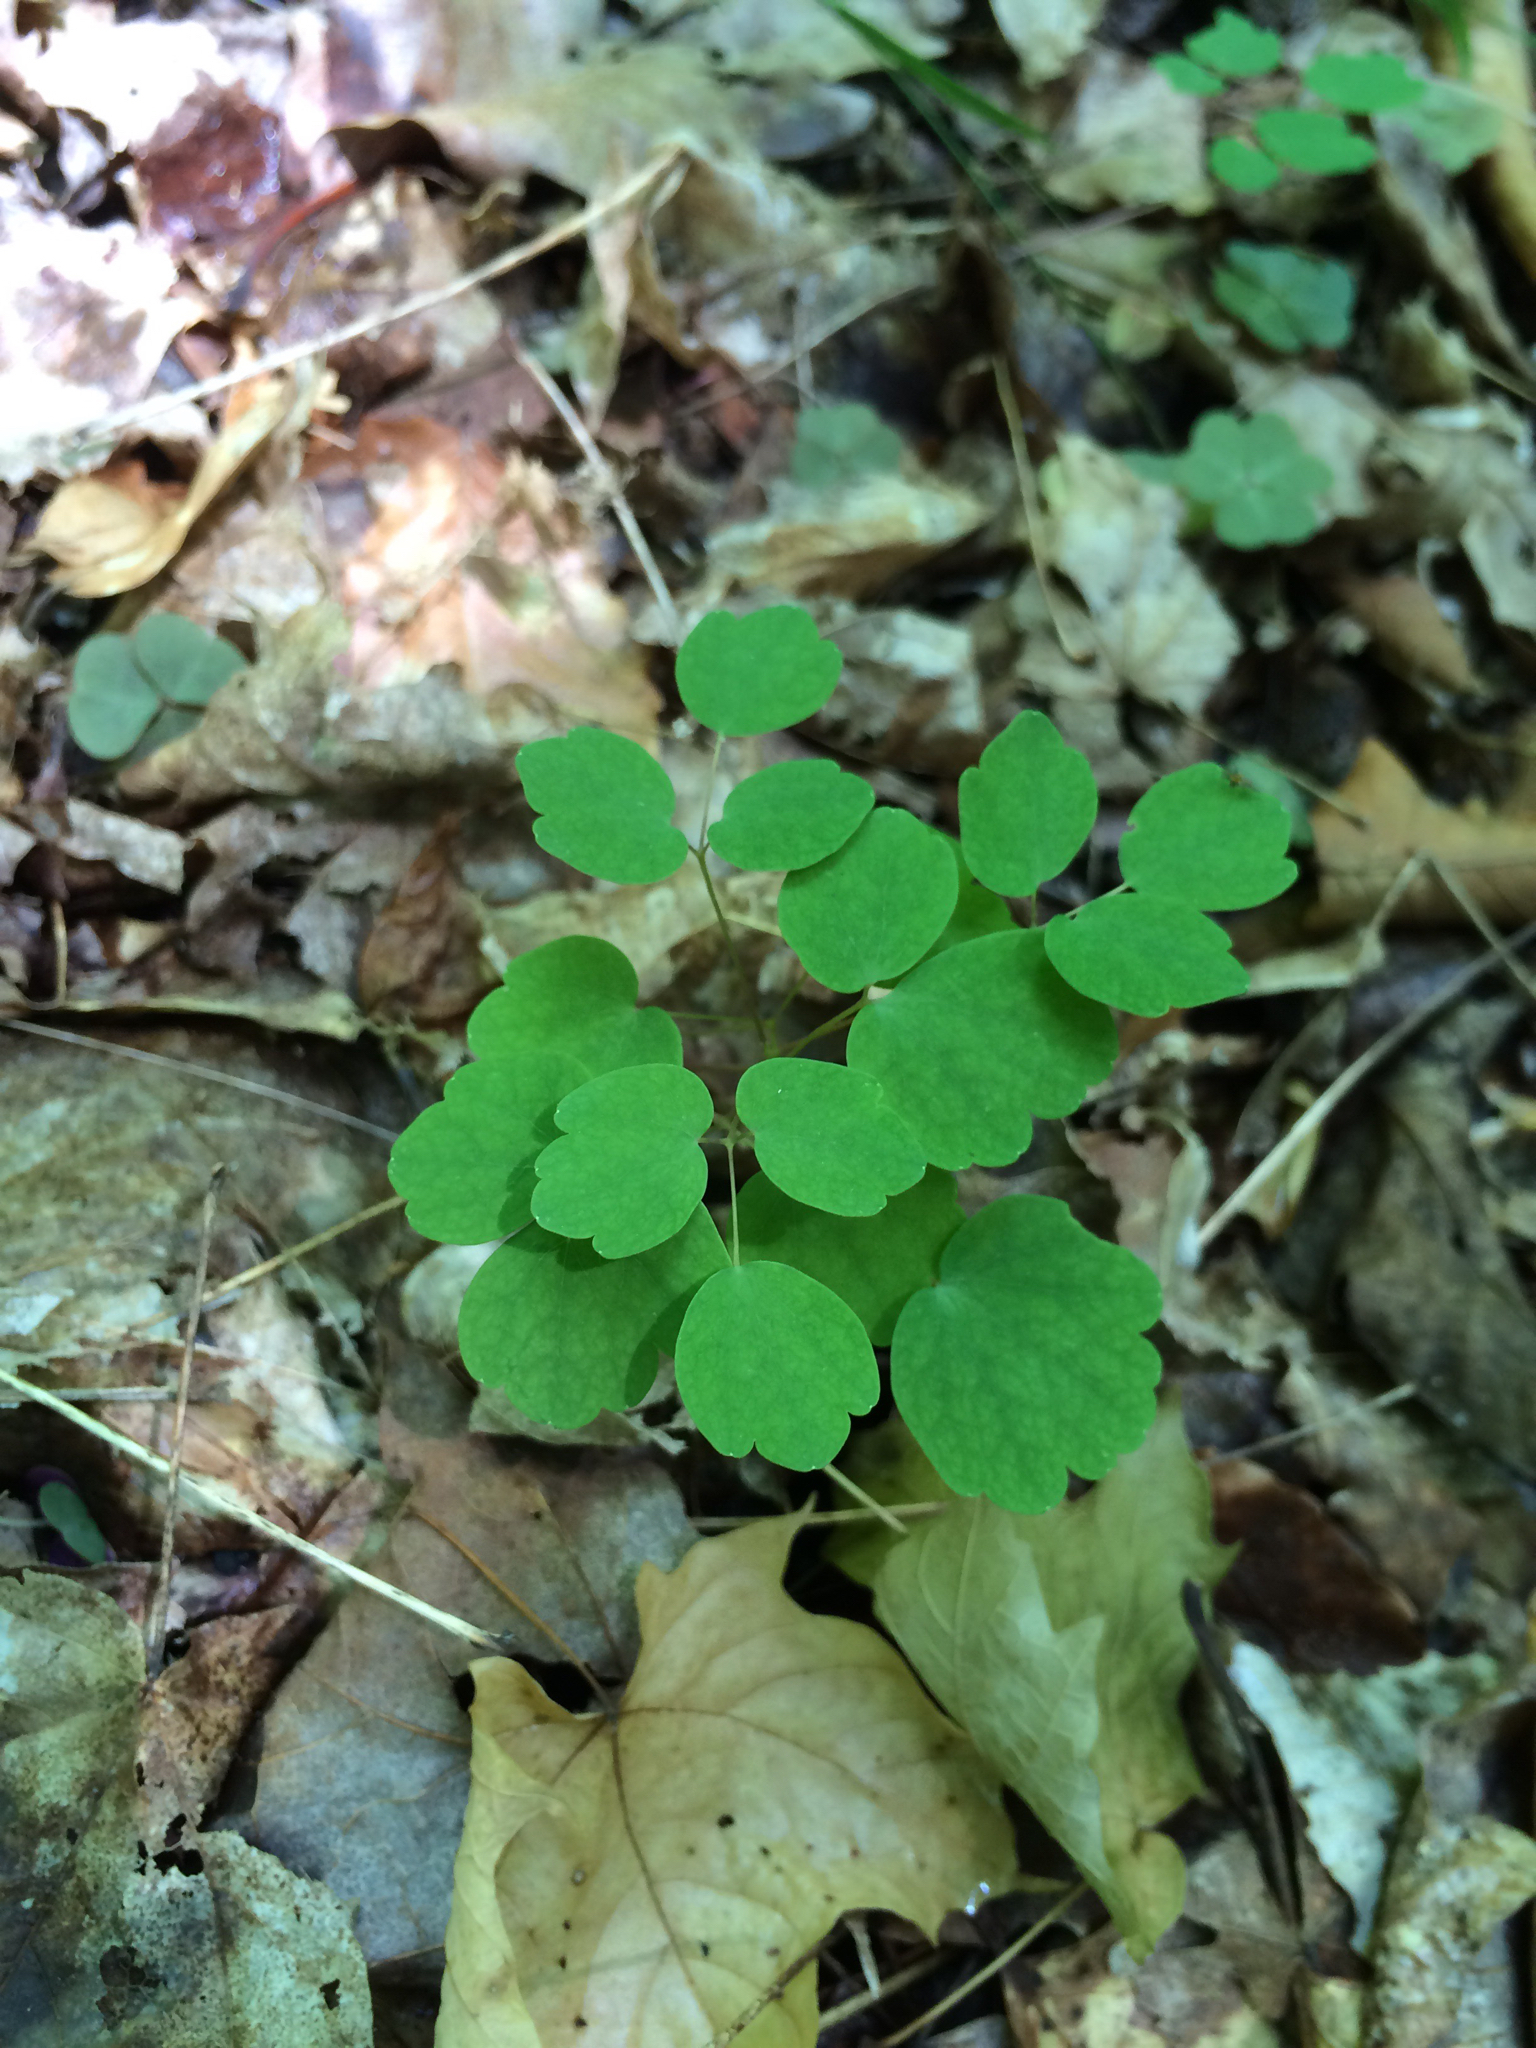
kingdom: Plantae
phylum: Tracheophyta
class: Magnoliopsida
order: Ranunculales
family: Ranunculaceae
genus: Thalictrum
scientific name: Thalictrum thalictroides
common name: Rue-anemone
